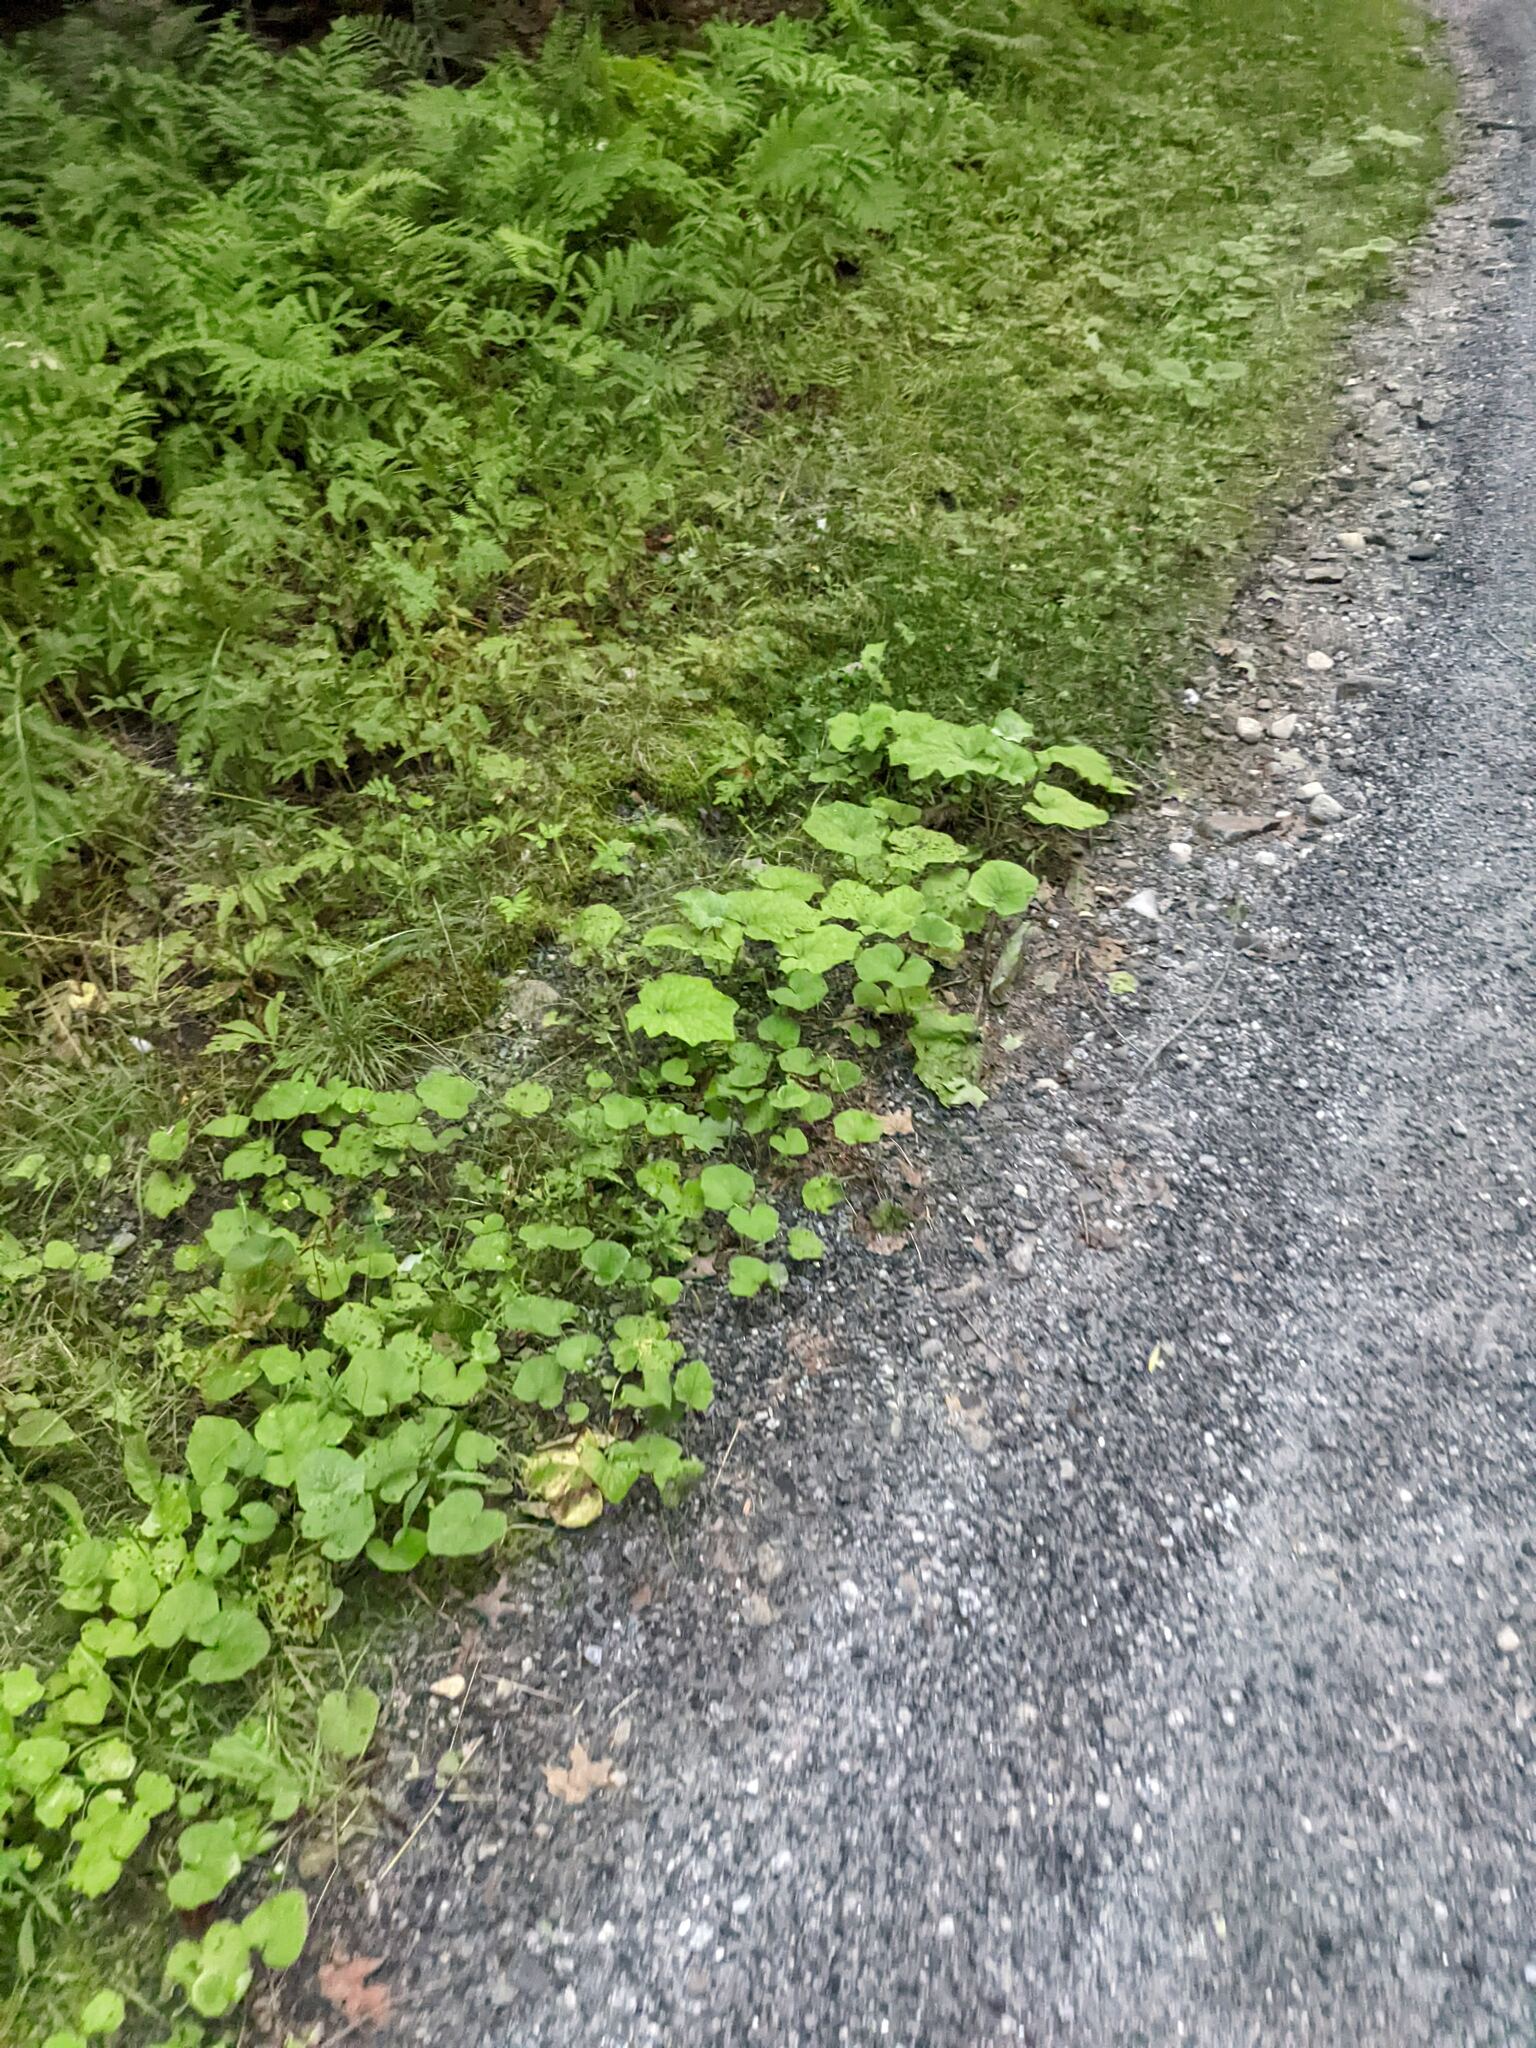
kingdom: Plantae
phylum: Tracheophyta
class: Magnoliopsida
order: Asterales
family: Asteraceae
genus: Tussilago
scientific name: Tussilago farfara
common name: Coltsfoot
